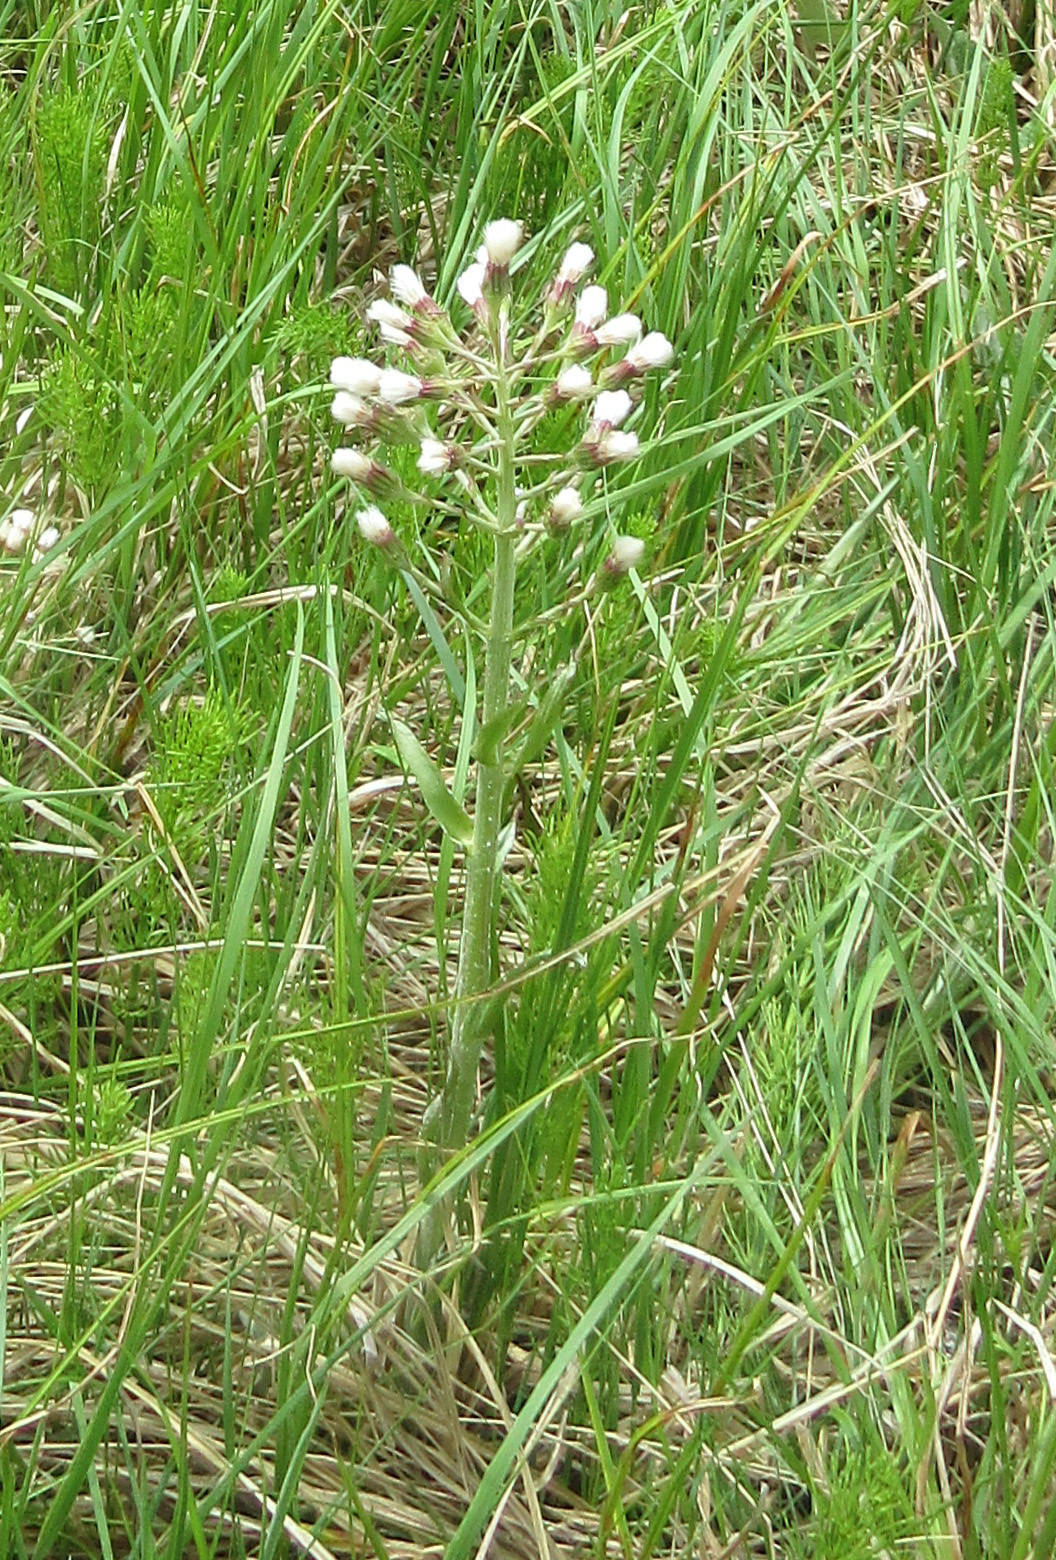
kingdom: Plantae
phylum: Tracheophyta
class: Magnoliopsida
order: Asterales
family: Asteraceae
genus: Petasites
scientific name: Petasites frigidus
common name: Arctic butterbur
